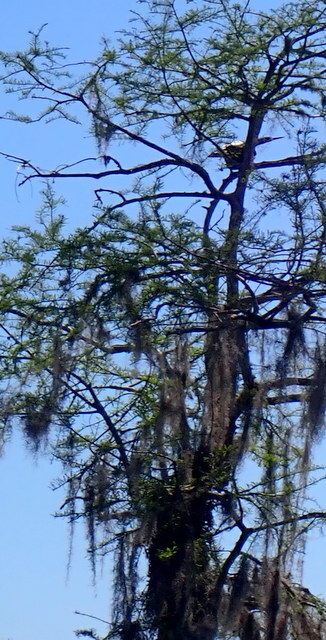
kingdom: Animalia
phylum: Chordata
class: Aves
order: Suliformes
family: Anhingidae
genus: Anhinga
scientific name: Anhinga anhinga
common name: Anhinga
